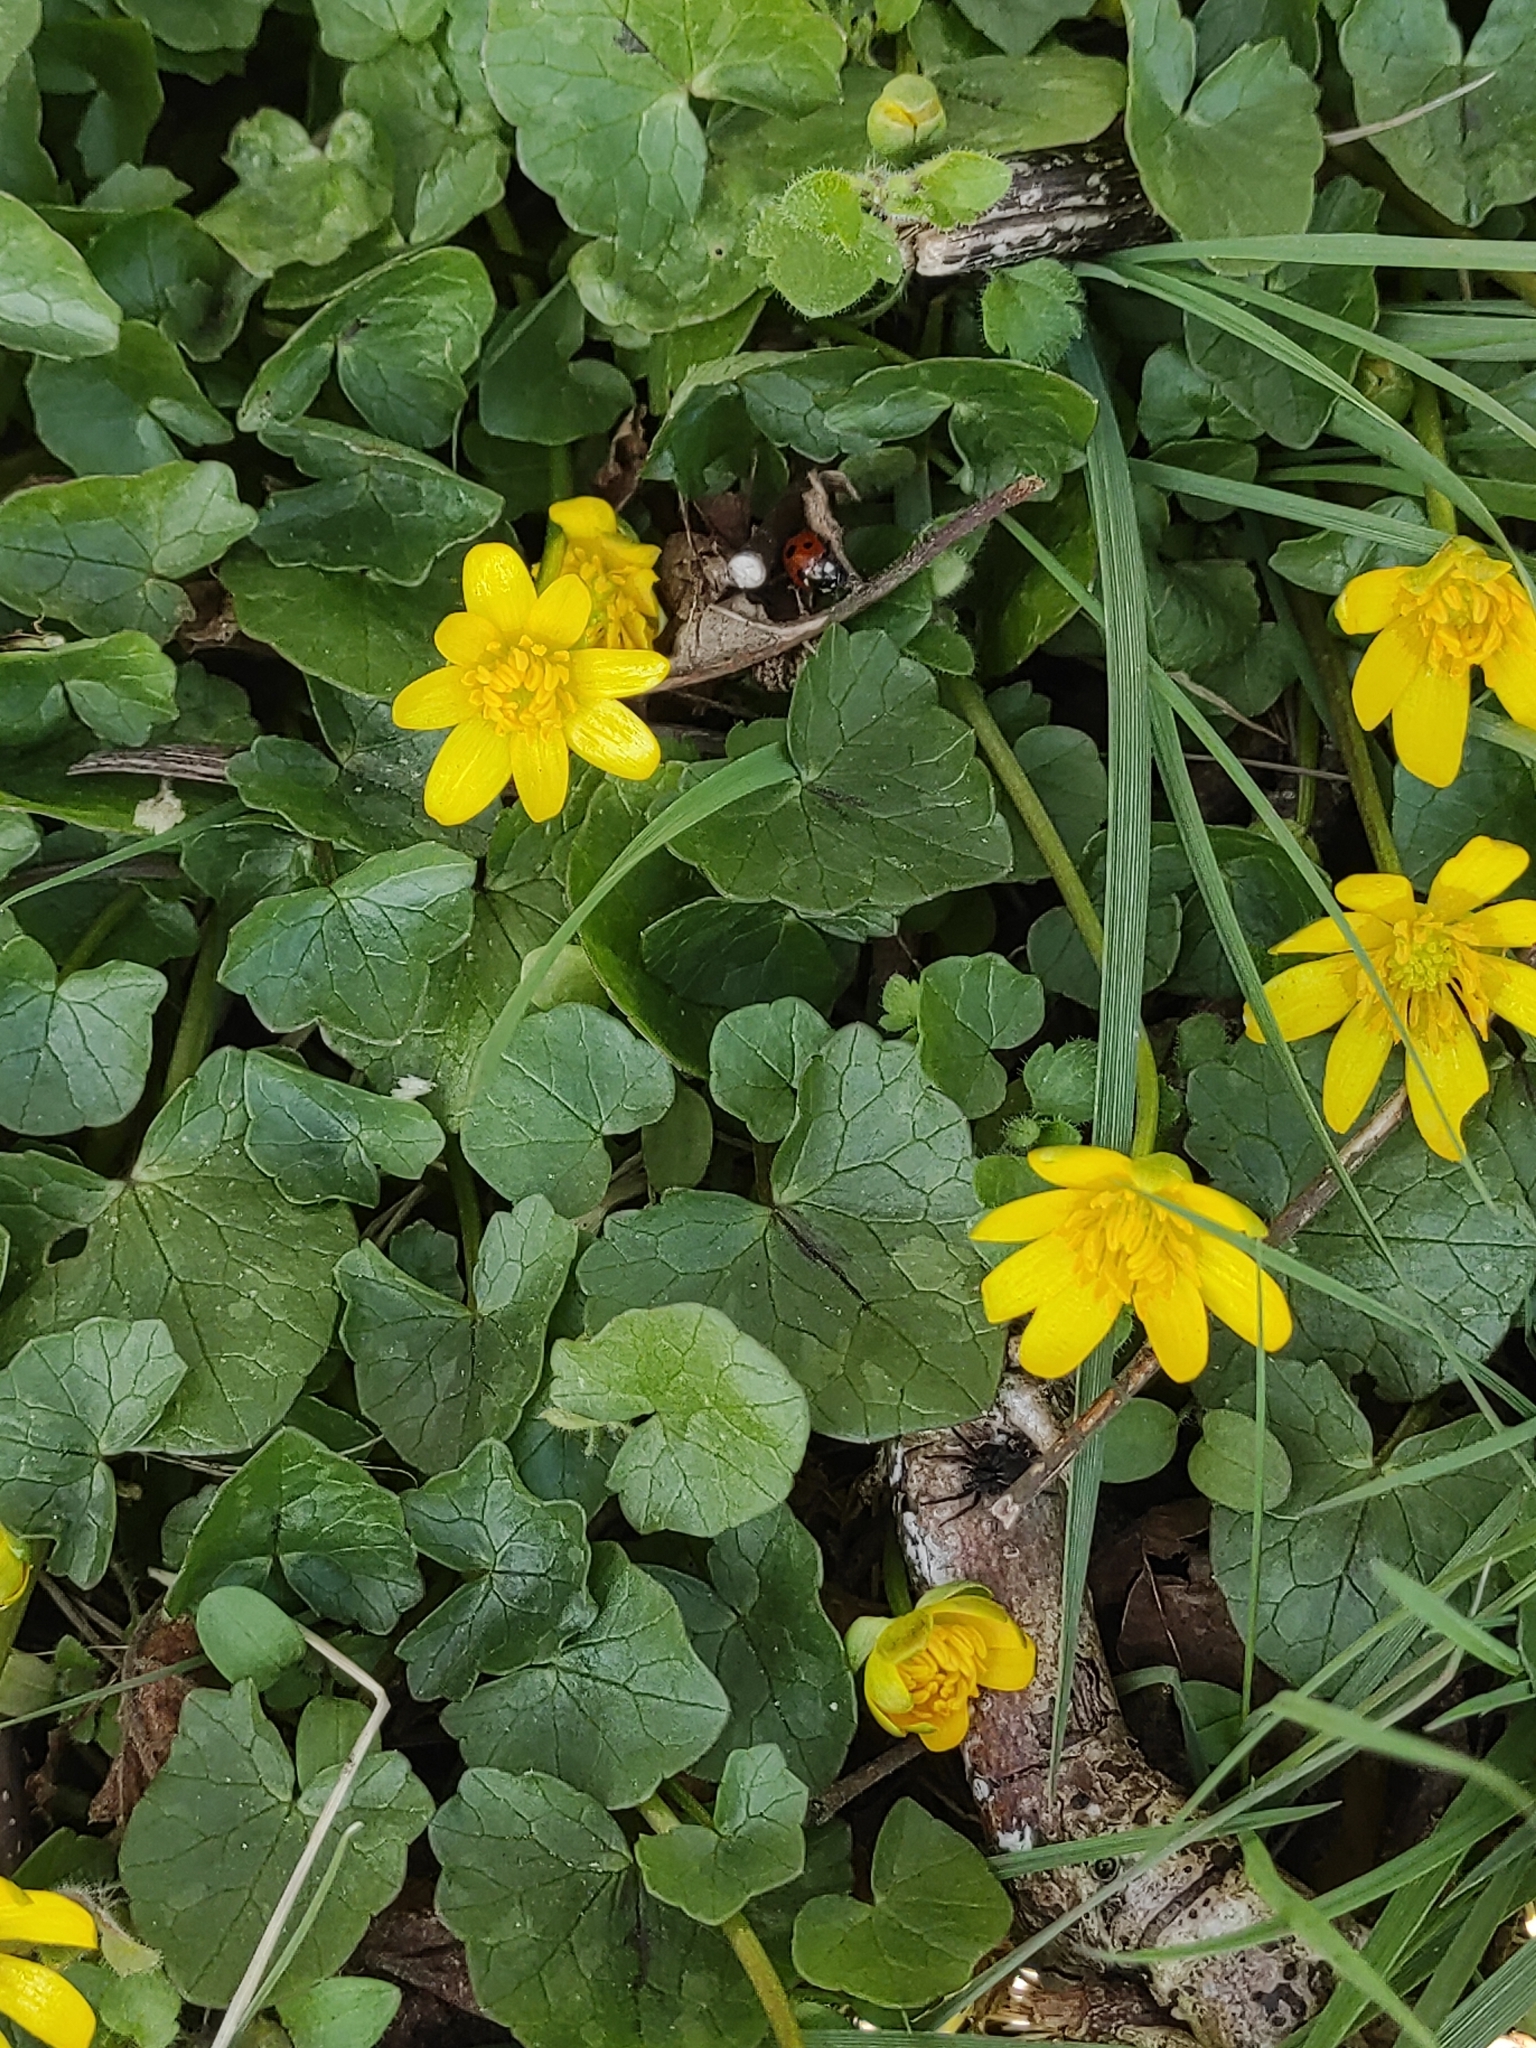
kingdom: Plantae
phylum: Tracheophyta
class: Magnoliopsida
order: Ranunculales
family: Ranunculaceae
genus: Ficaria
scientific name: Ficaria verna
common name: Lesser celandine
